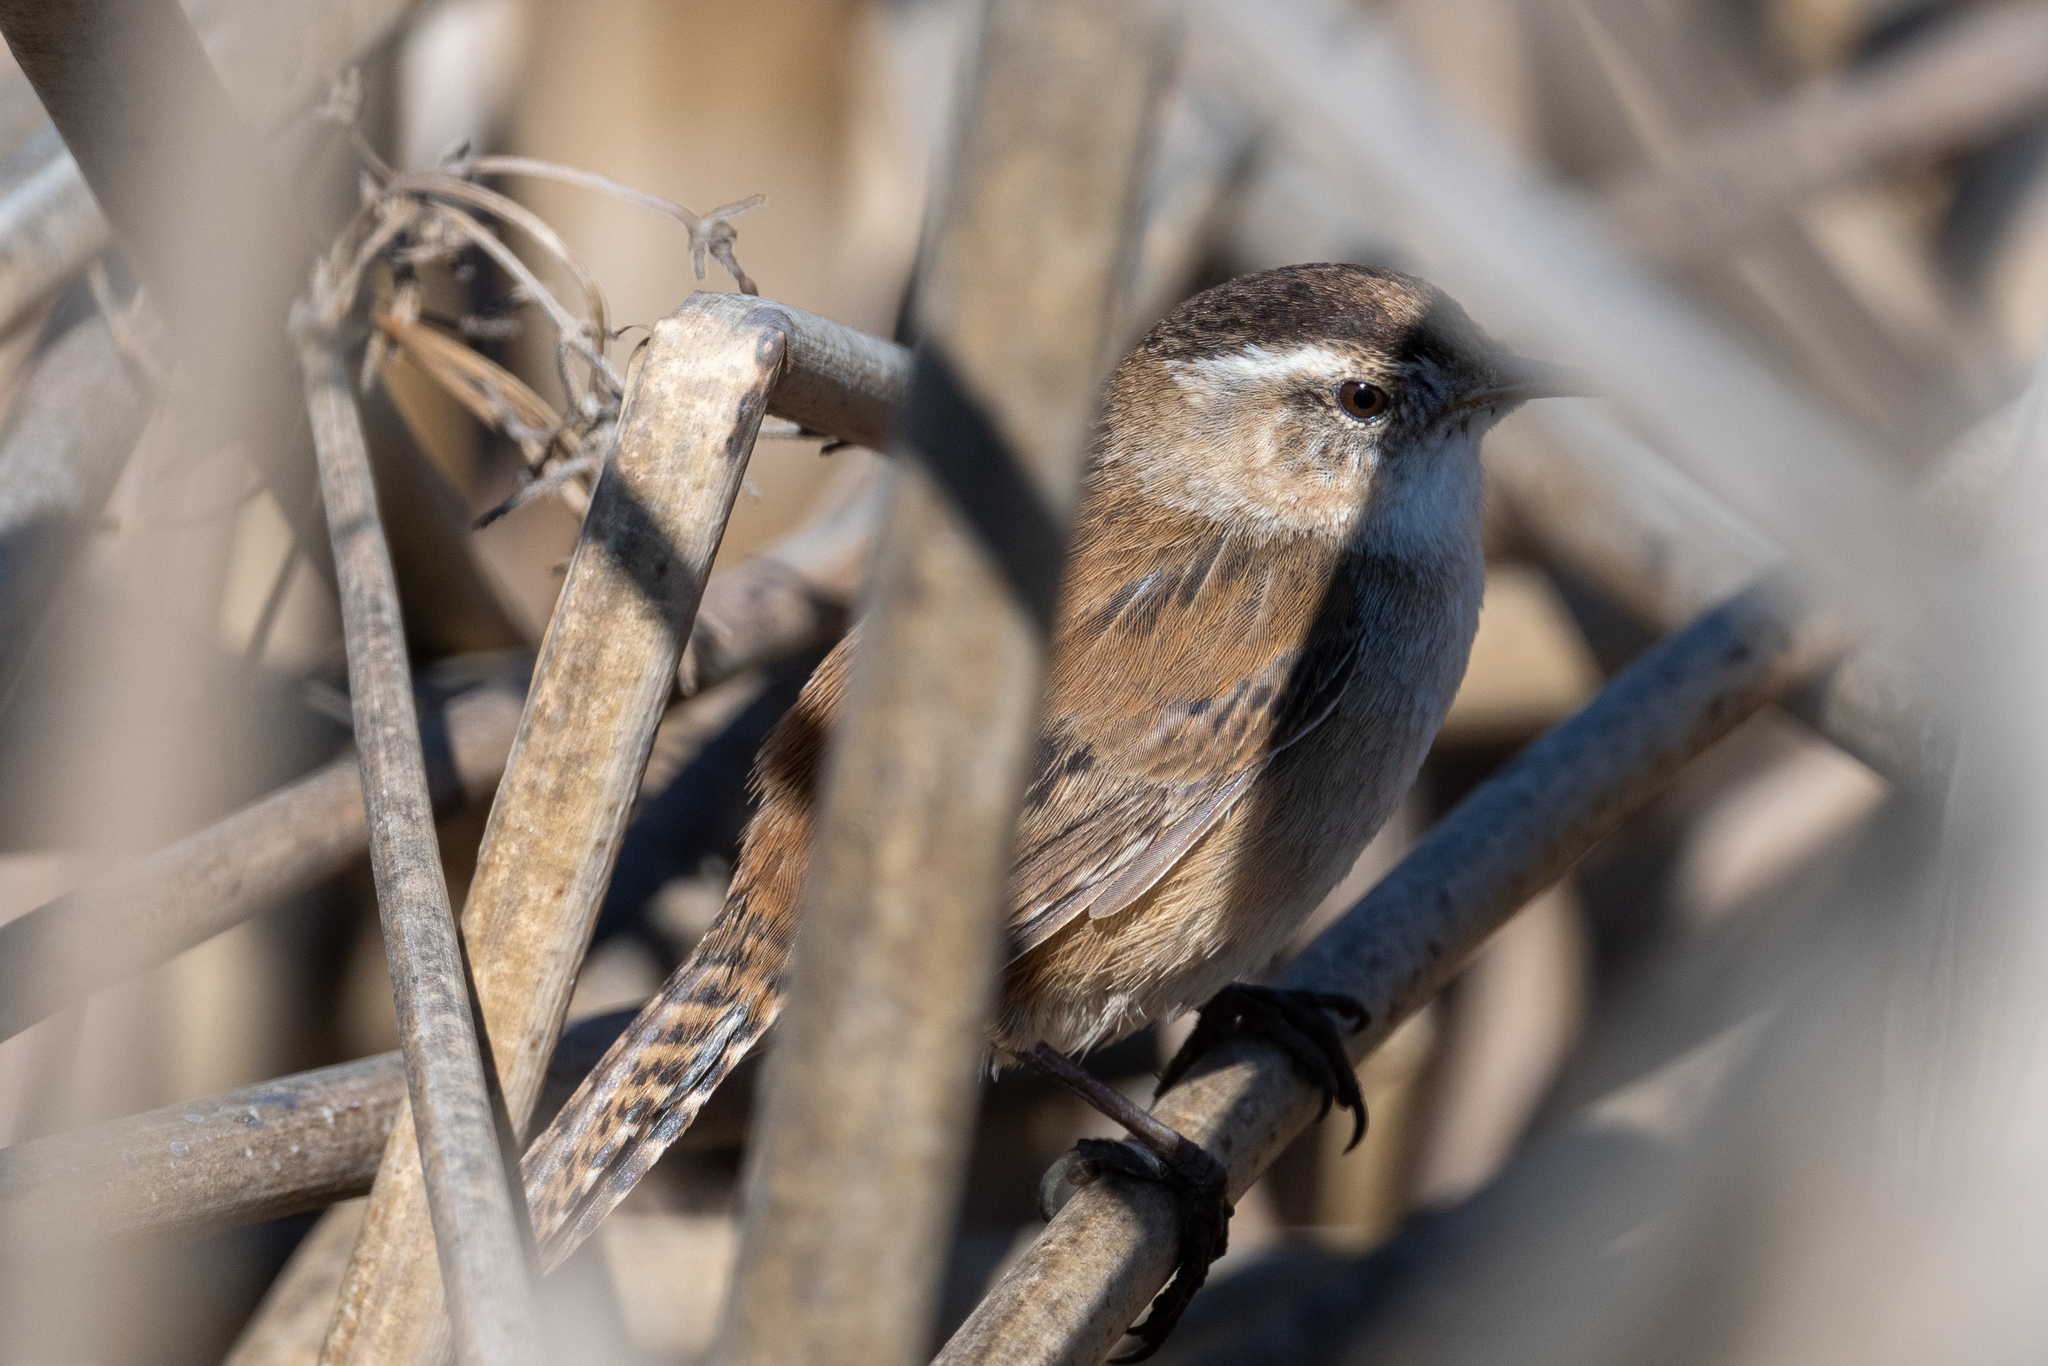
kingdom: Animalia
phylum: Chordata
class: Aves
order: Passeriformes
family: Troglodytidae
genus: Cistothorus
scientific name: Cistothorus palustris
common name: Marsh wren
